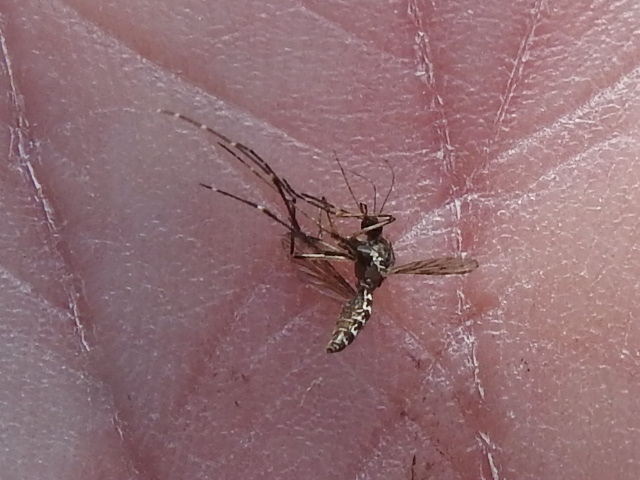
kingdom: Animalia
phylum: Arthropoda
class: Insecta
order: Diptera
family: Culicidae
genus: Aedes
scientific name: Aedes taeniorhynchus
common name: Black salt marsh mosquito
